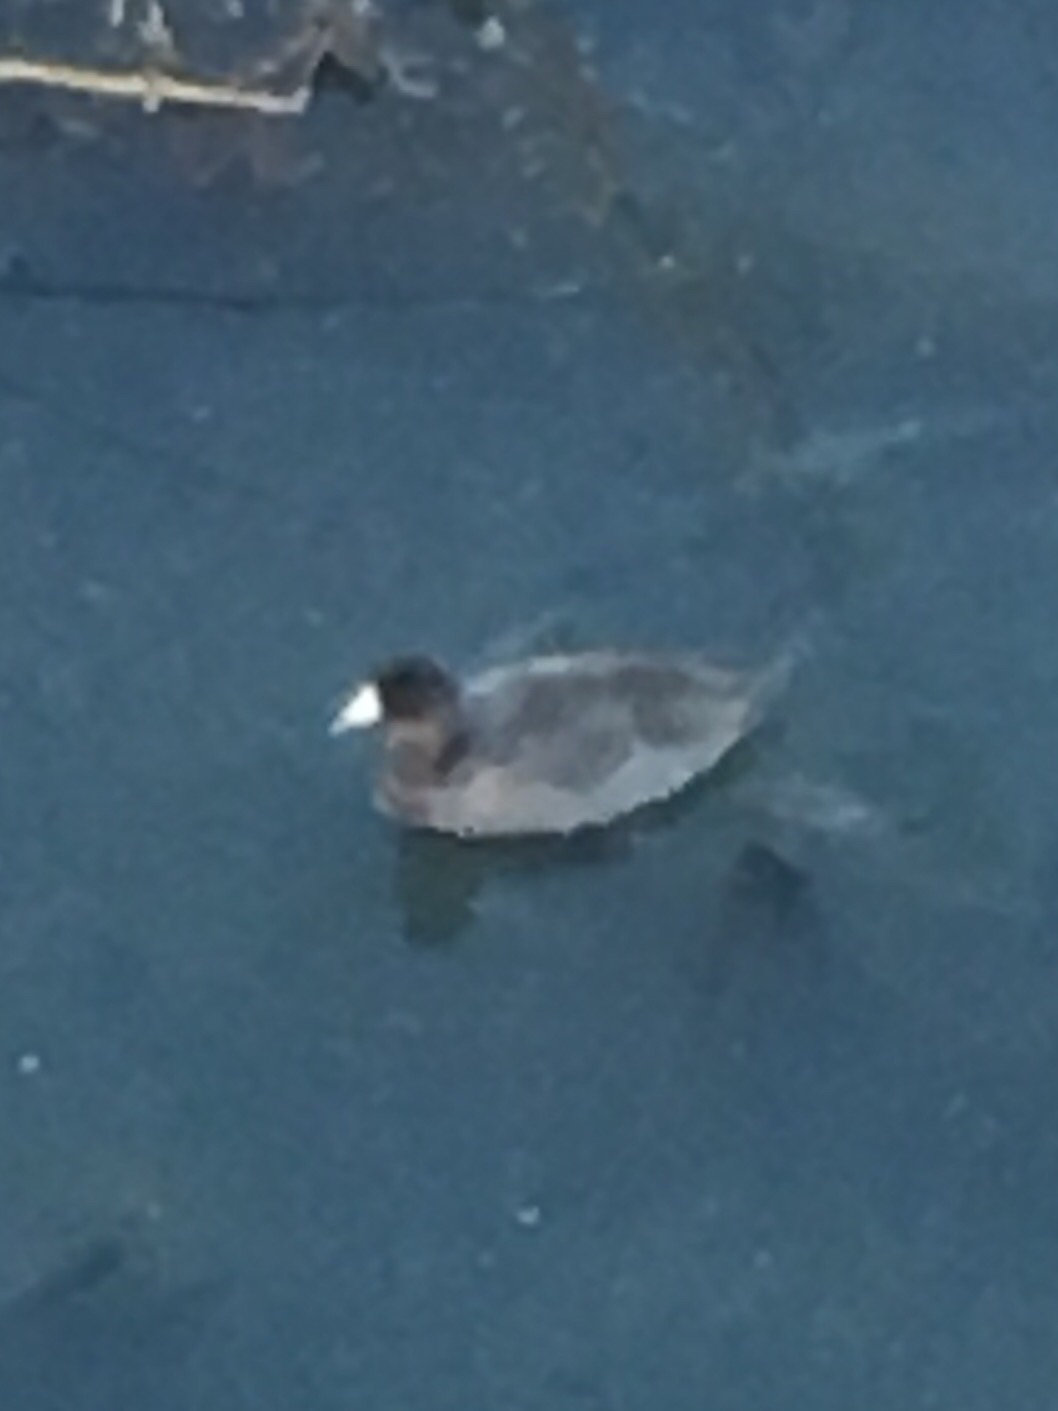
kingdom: Animalia
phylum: Chordata
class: Aves
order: Gruiformes
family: Rallidae
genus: Fulica
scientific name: Fulica americana
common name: American coot
